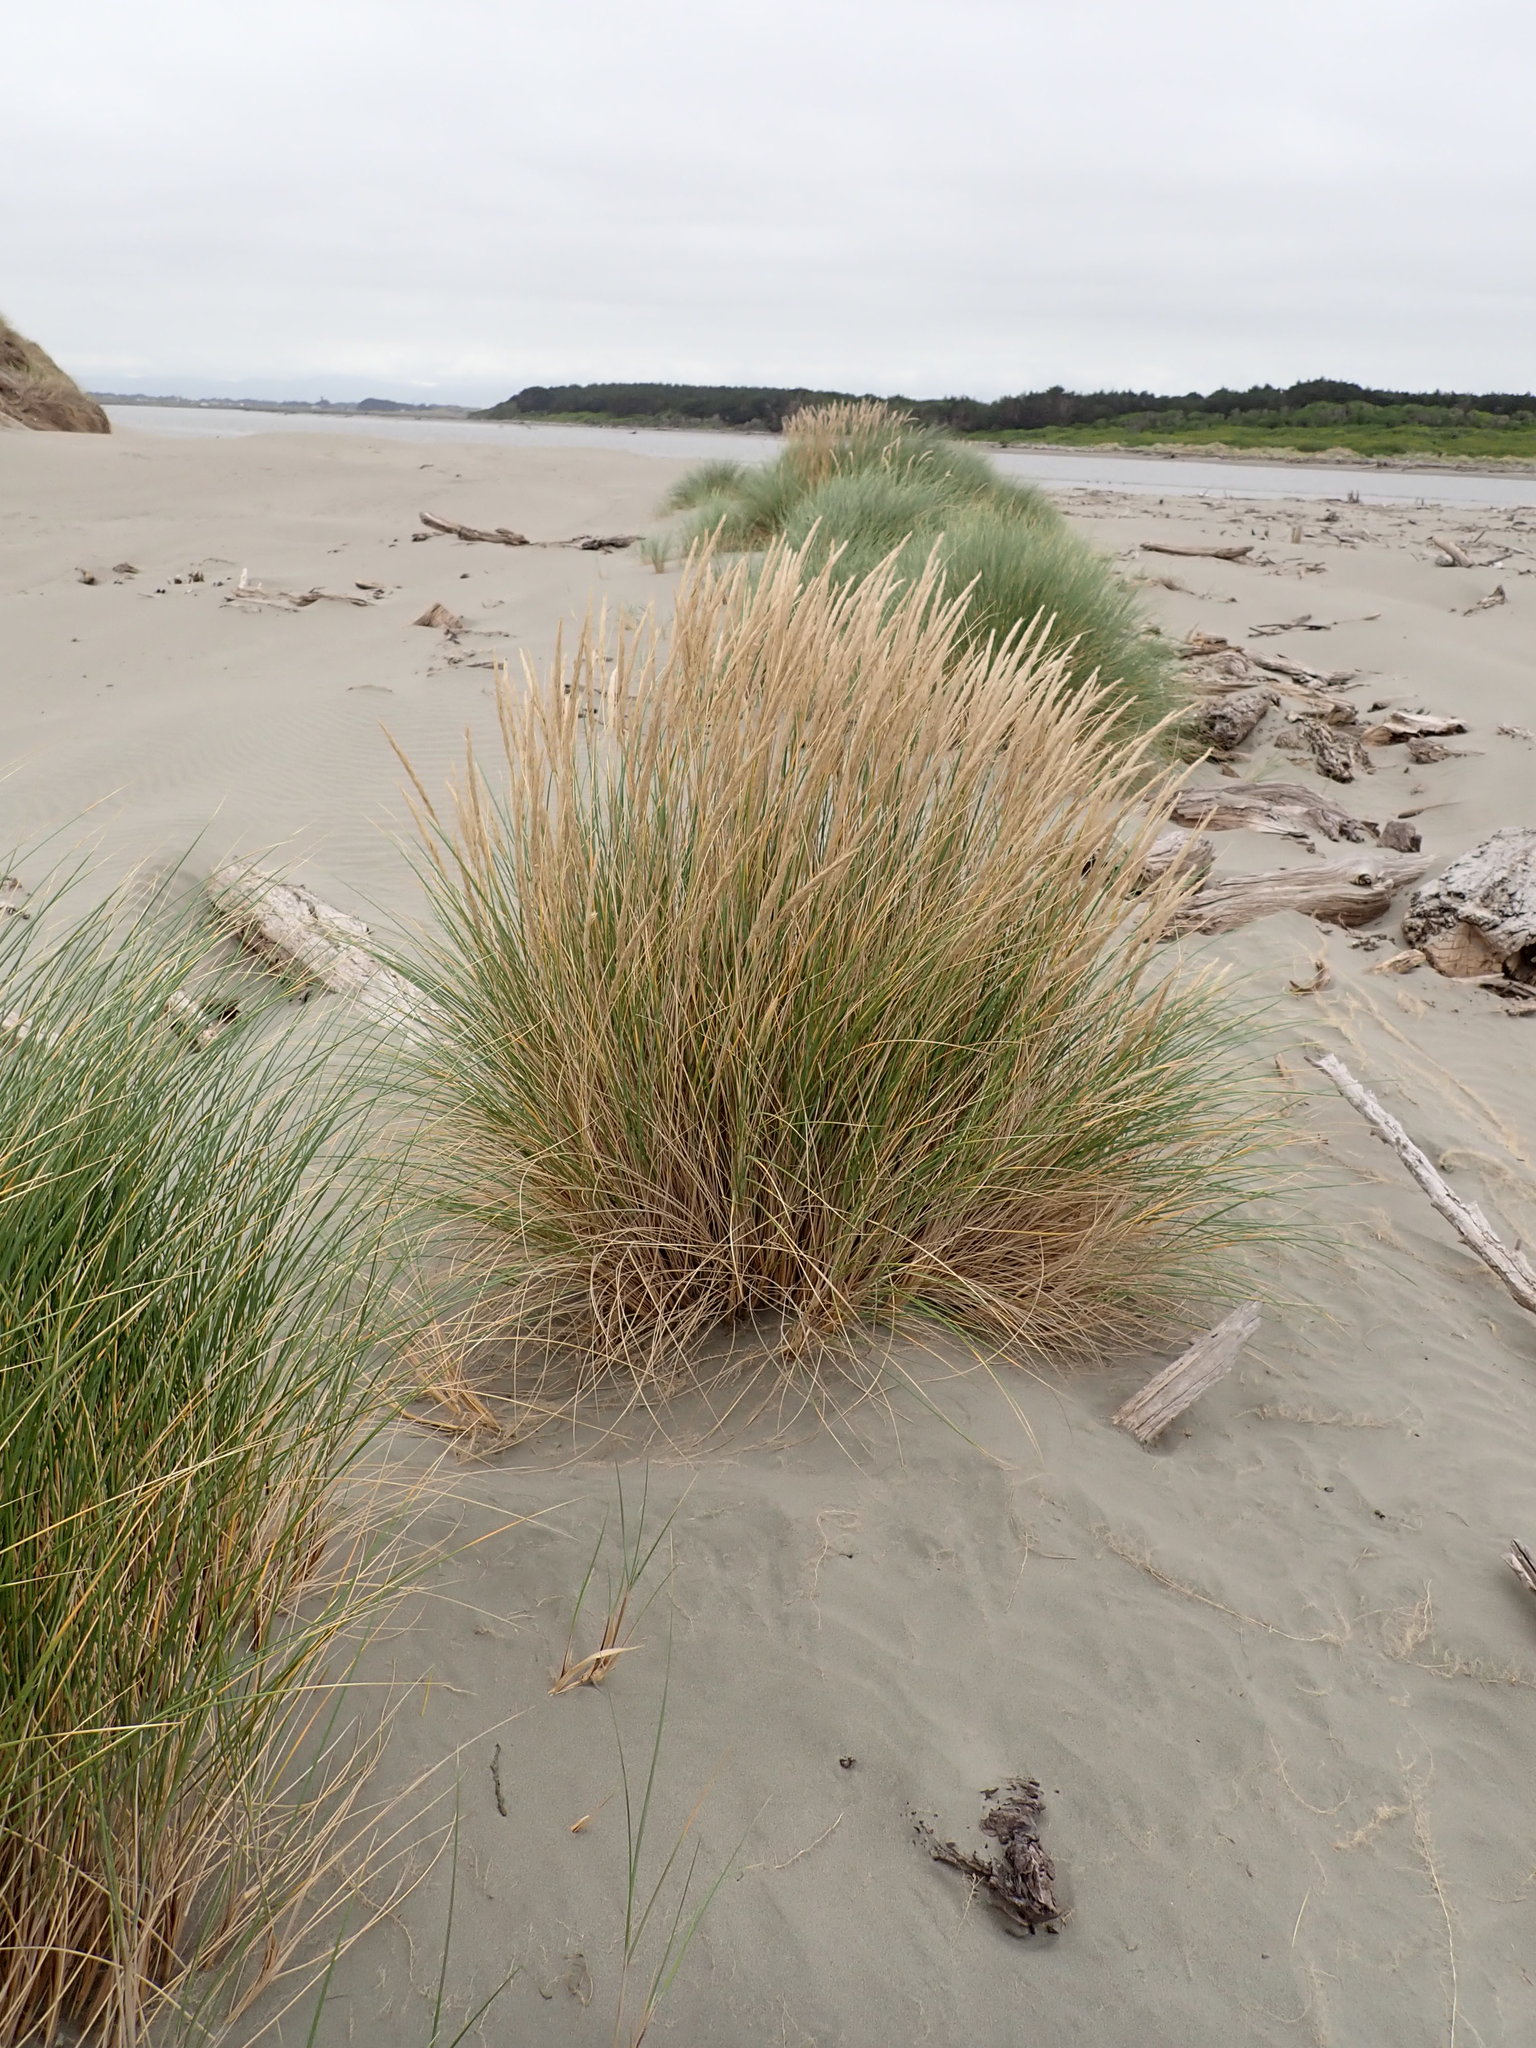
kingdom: Plantae
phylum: Tracheophyta
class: Liliopsida
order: Poales
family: Poaceae
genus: Calamagrostis
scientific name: Calamagrostis arenaria
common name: European beachgrass
